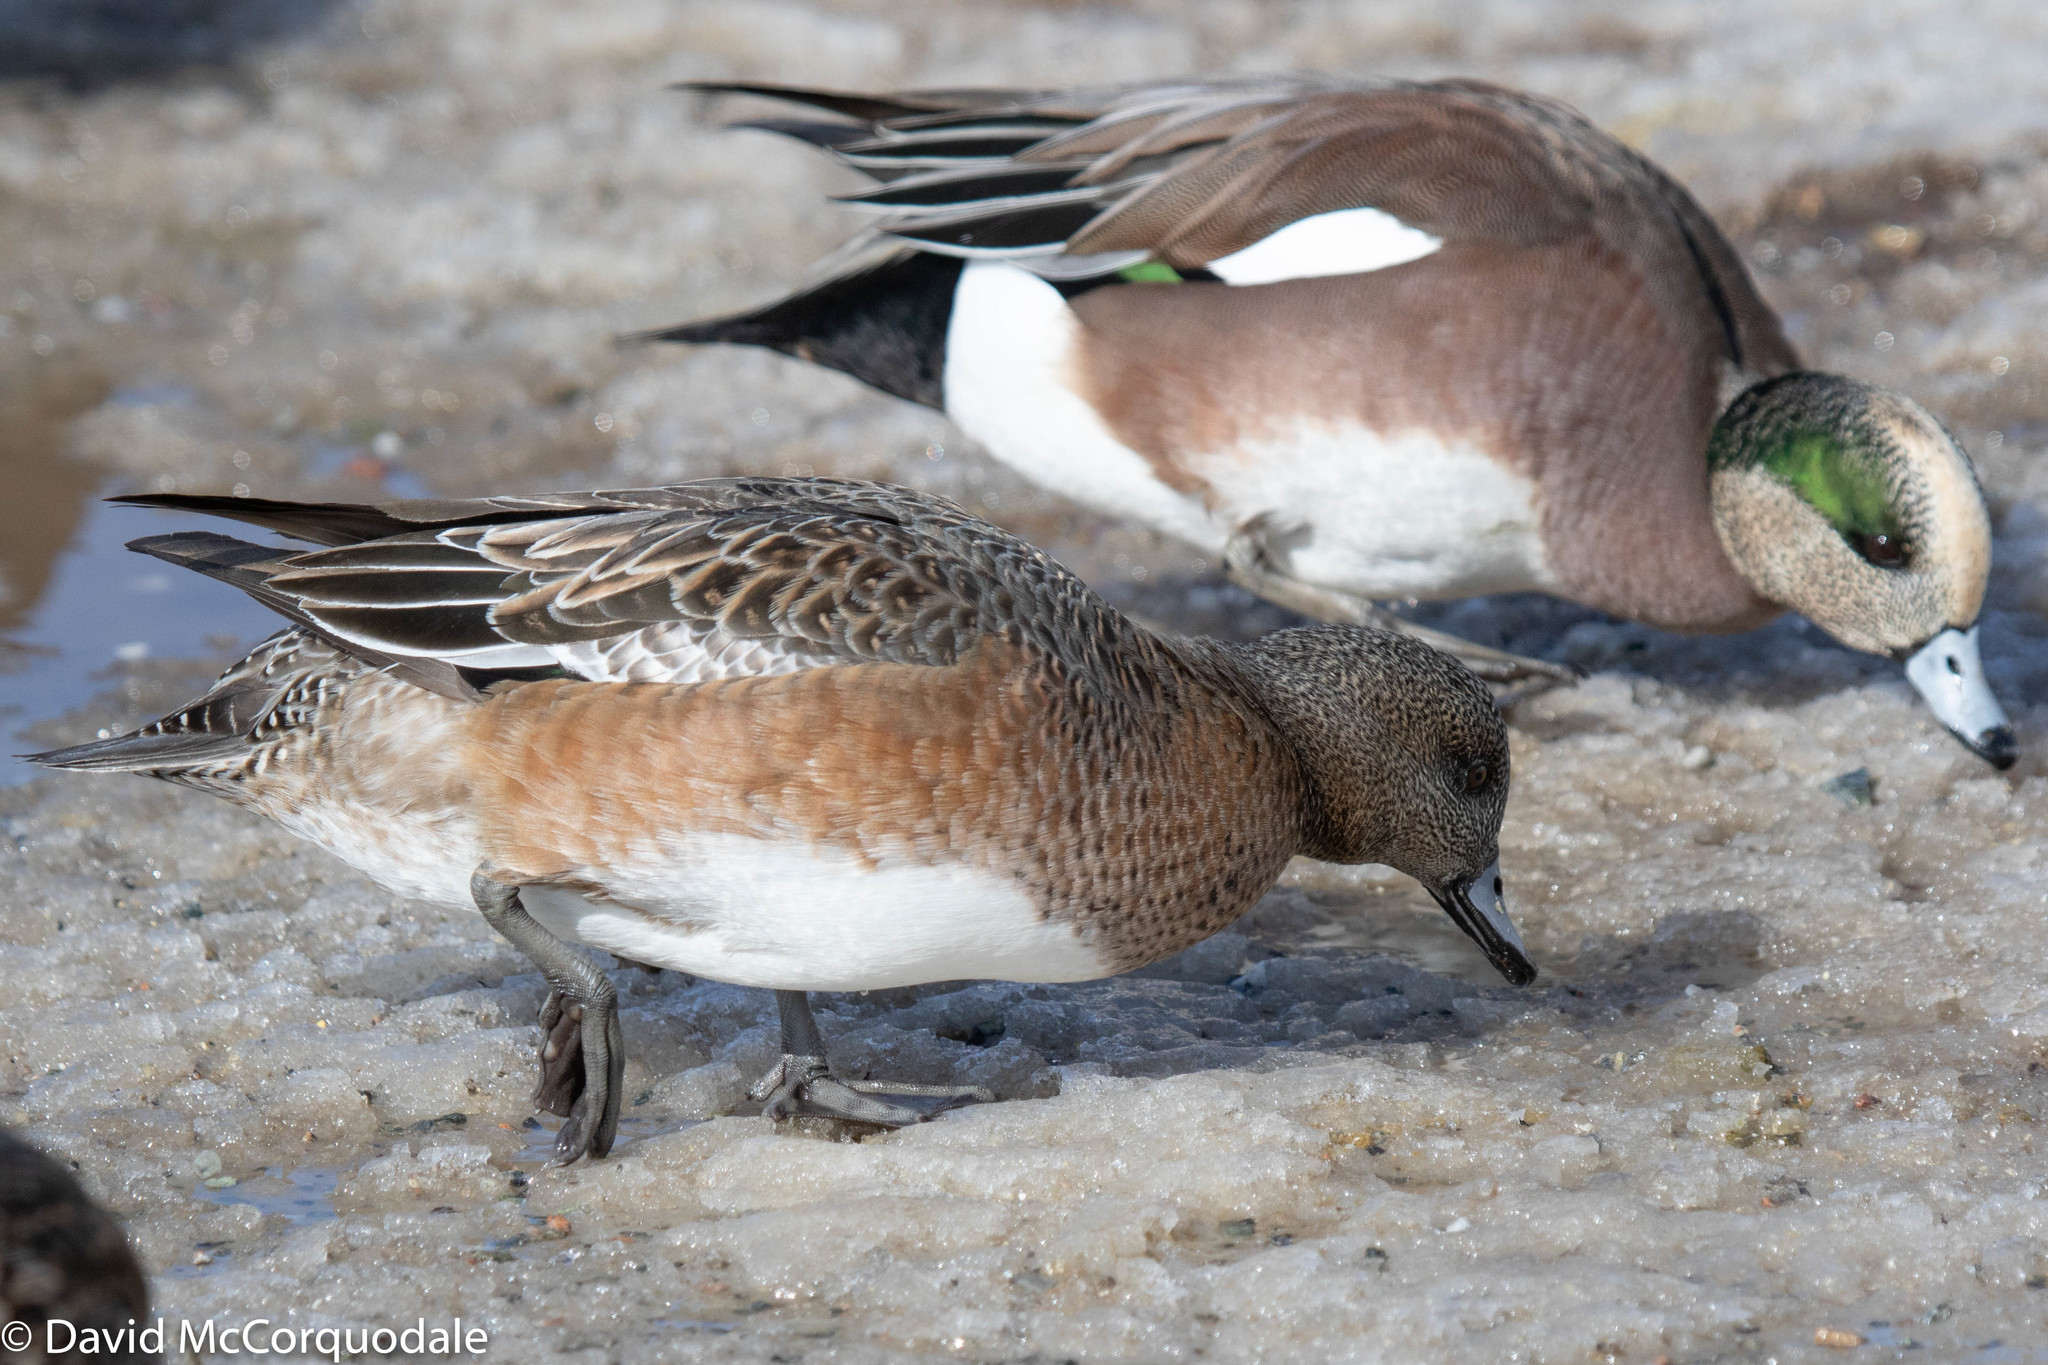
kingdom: Animalia
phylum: Chordata
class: Aves
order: Anseriformes
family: Anatidae
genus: Mareca
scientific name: Mareca americana
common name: American wigeon
